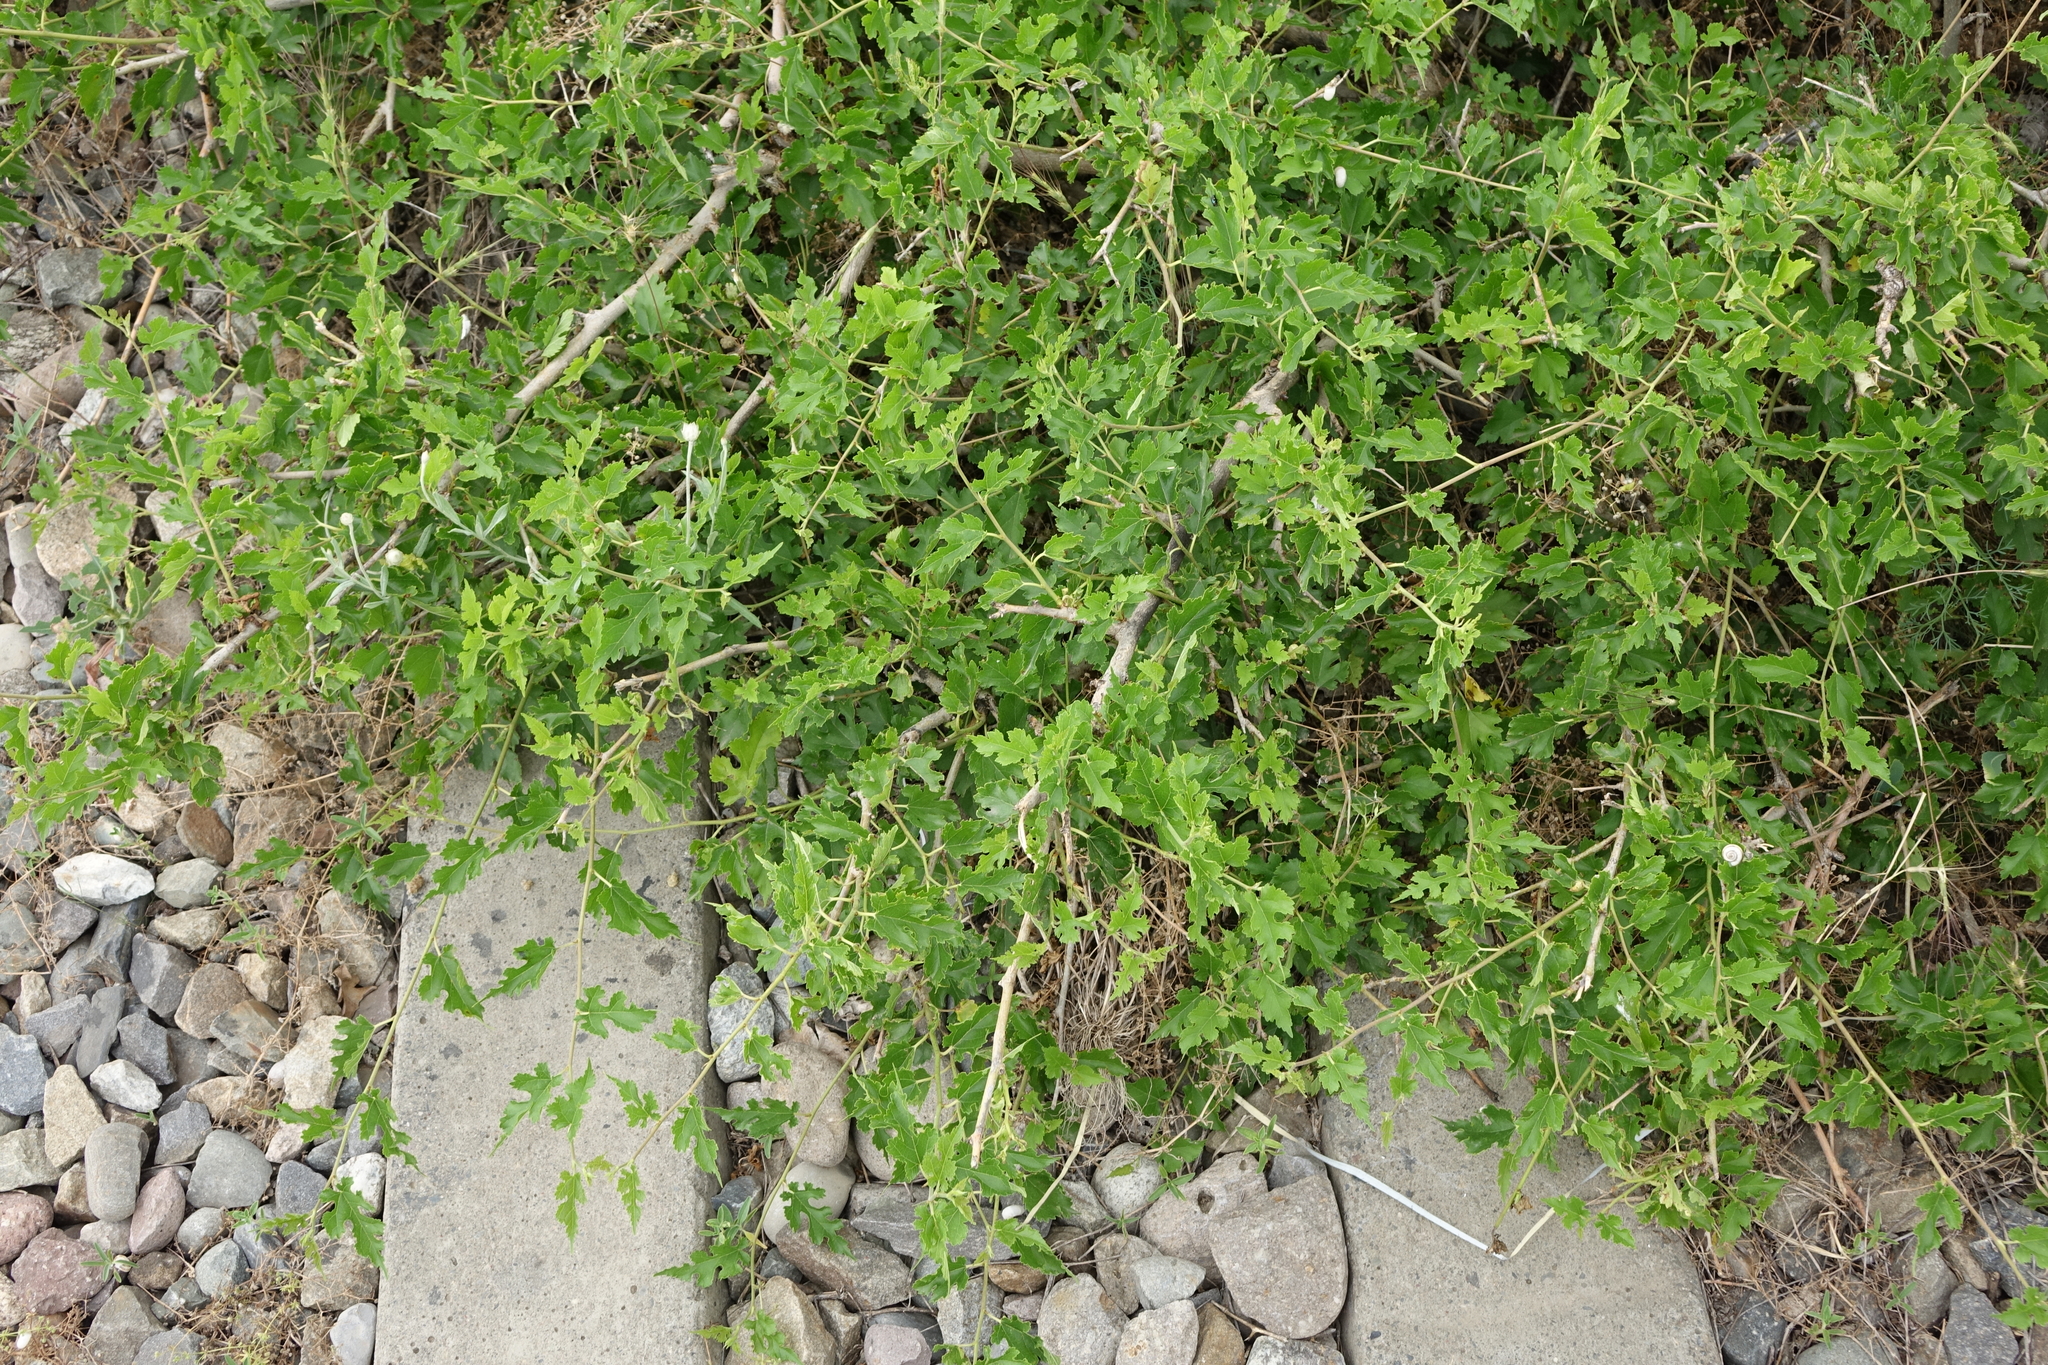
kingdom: Plantae
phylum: Tracheophyta
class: Magnoliopsida
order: Rosales
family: Moraceae
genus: Morus
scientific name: Morus alba
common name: White mulberry
